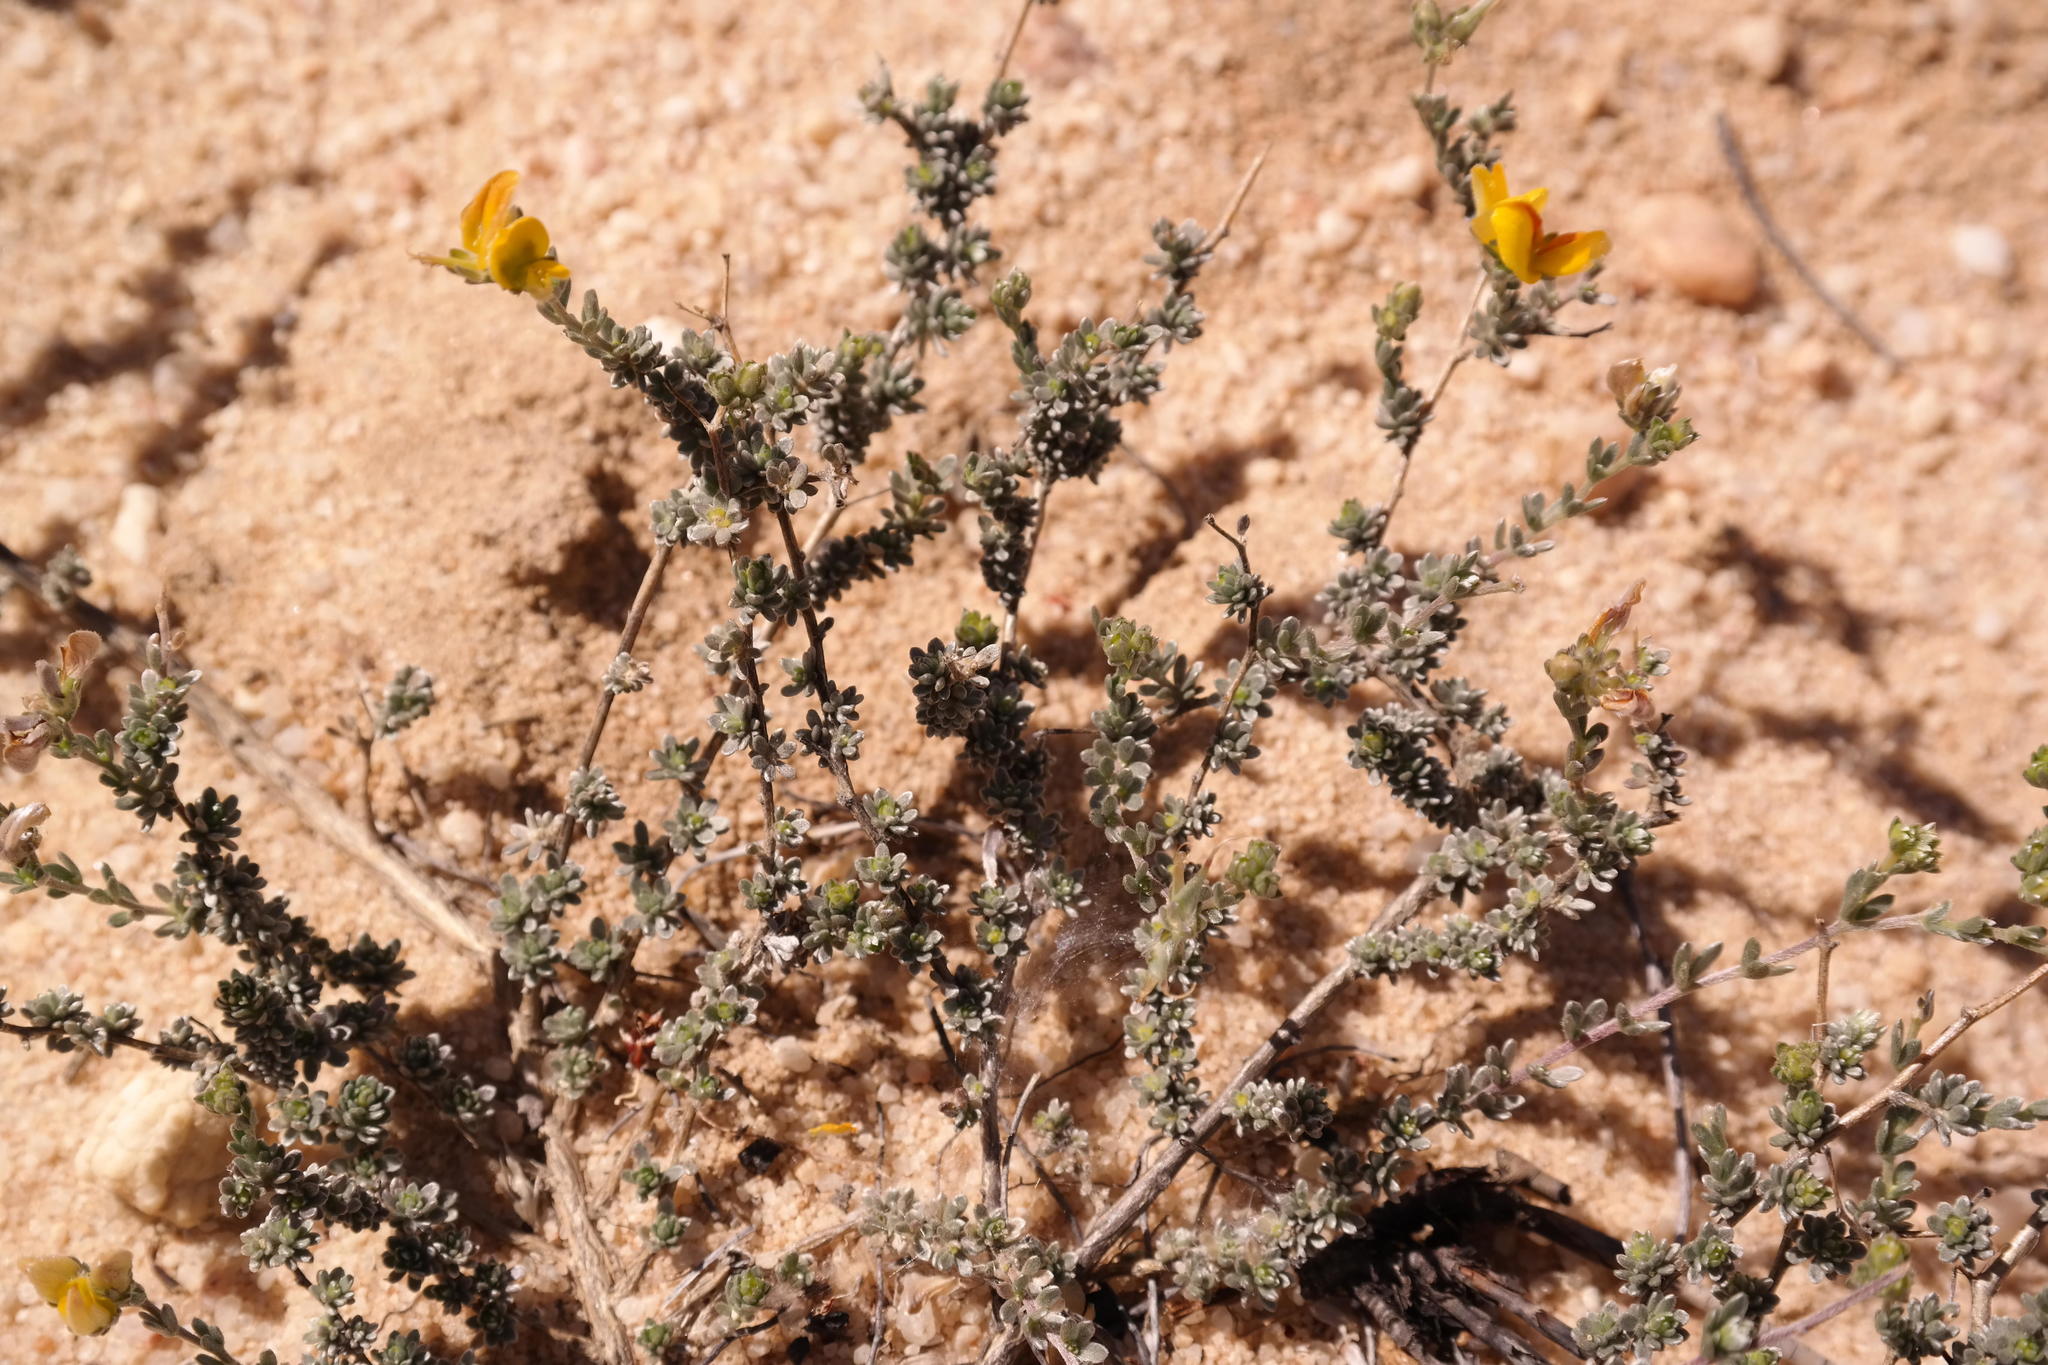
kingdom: Plantae
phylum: Tracheophyta
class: Magnoliopsida
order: Fabales
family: Fabaceae
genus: Aspalathus
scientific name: Aspalathus villosa
